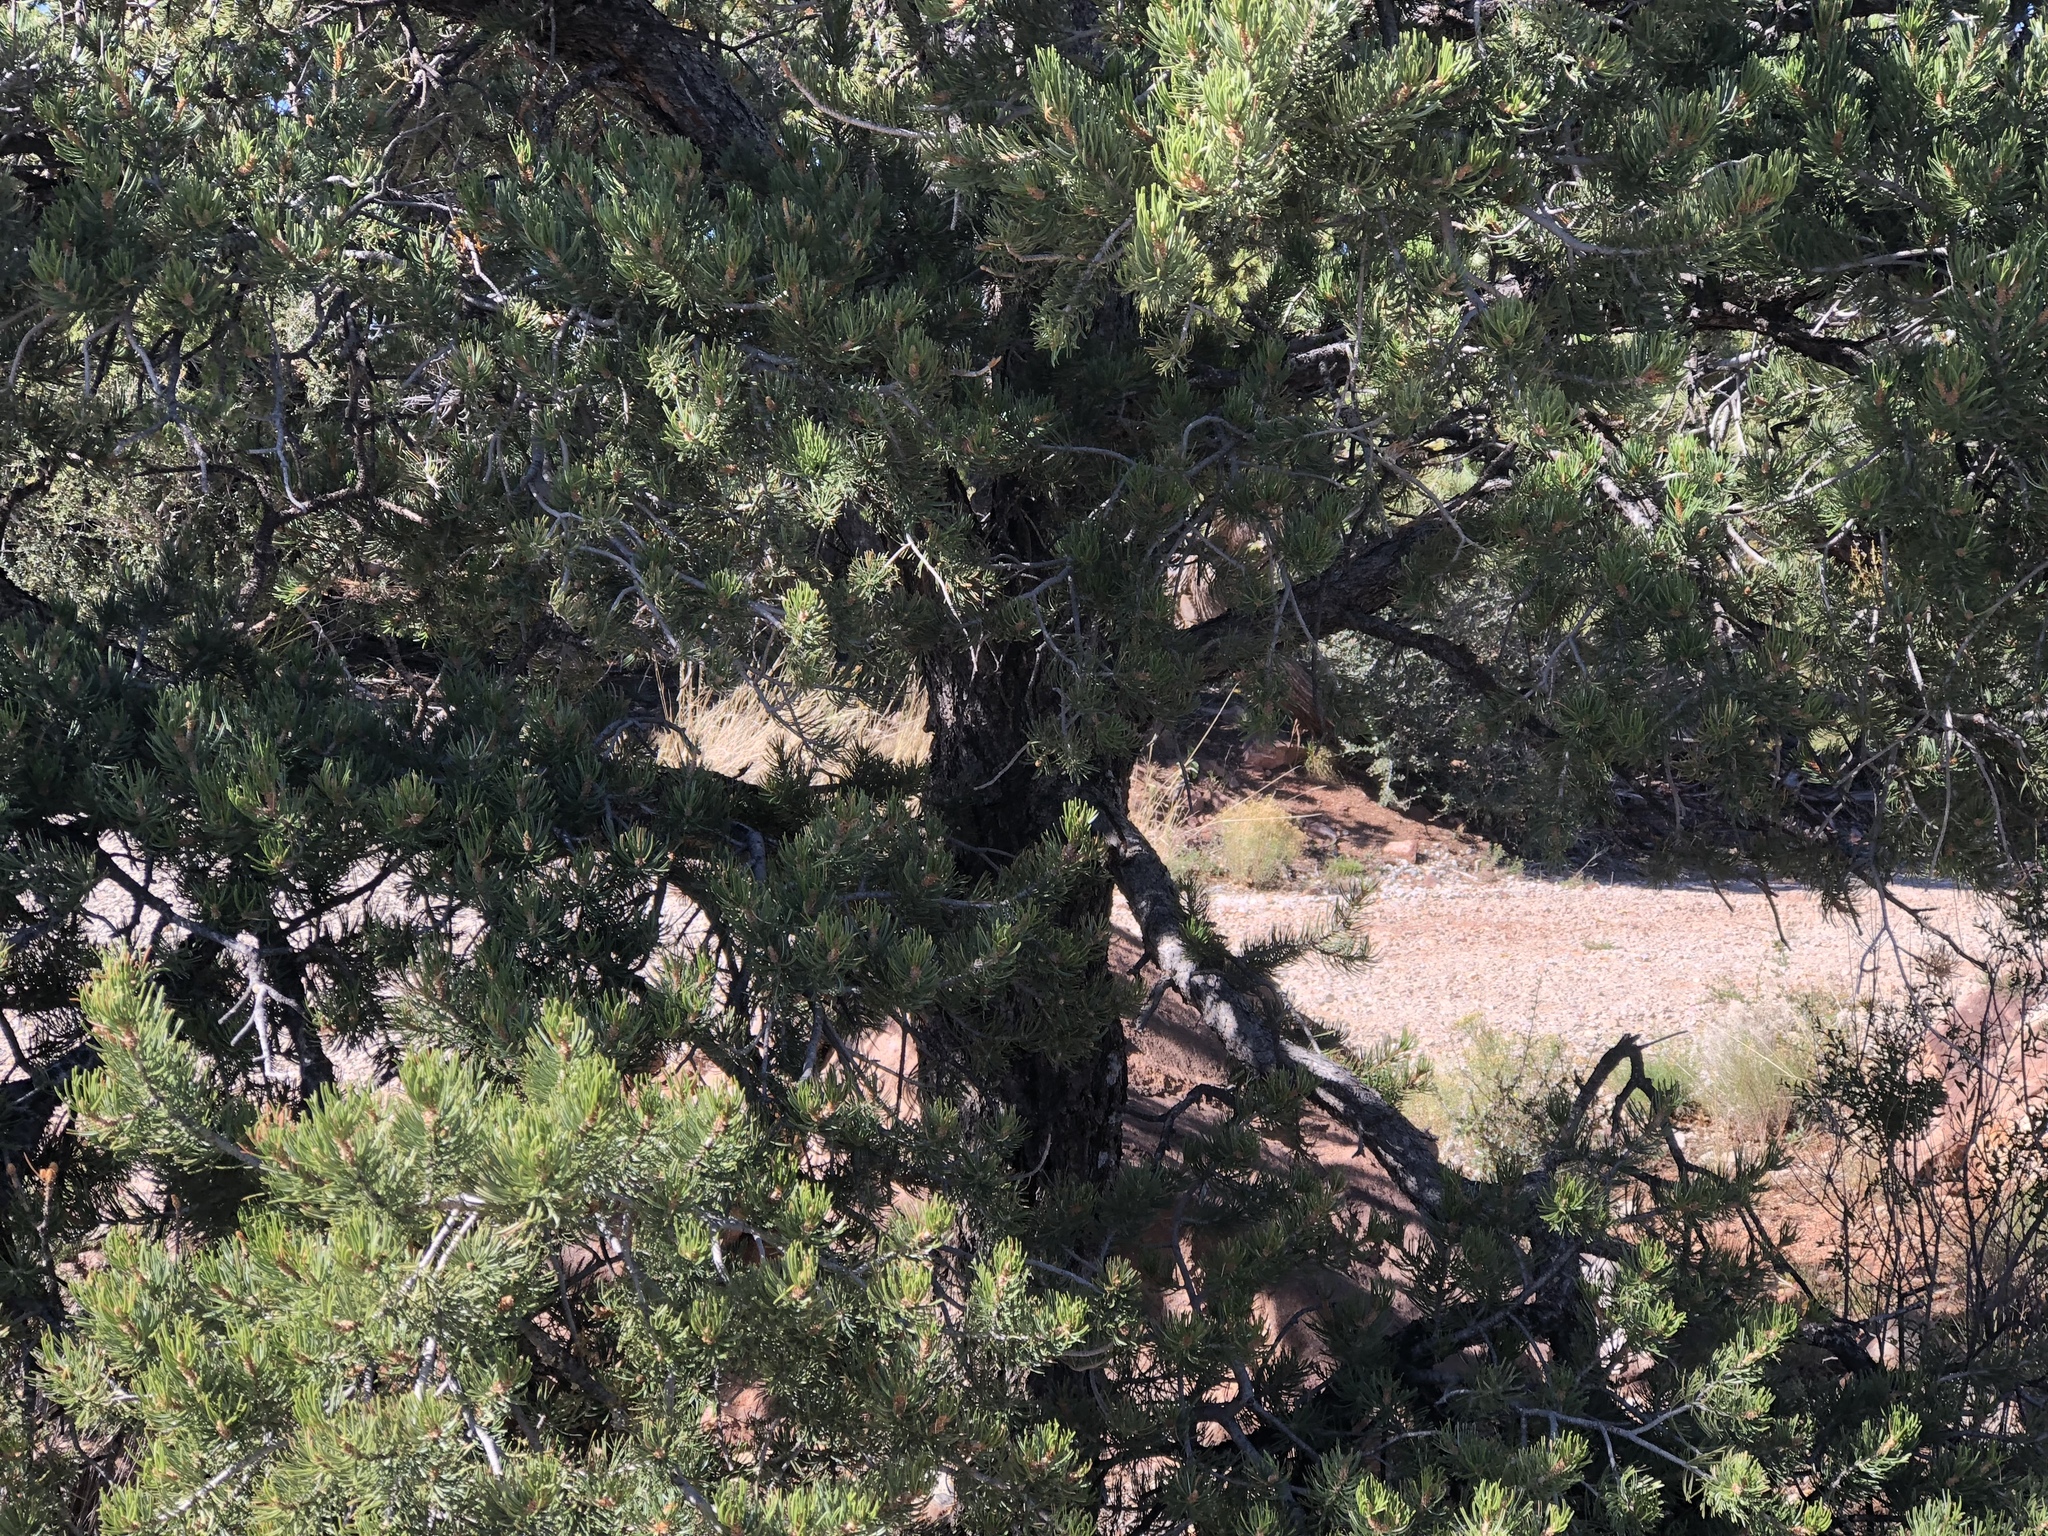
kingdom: Plantae
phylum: Tracheophyta
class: Pinopsida
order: Pinales
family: Pinaceae
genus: Pinus
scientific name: Pinus edulis
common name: Colorado pinyon
